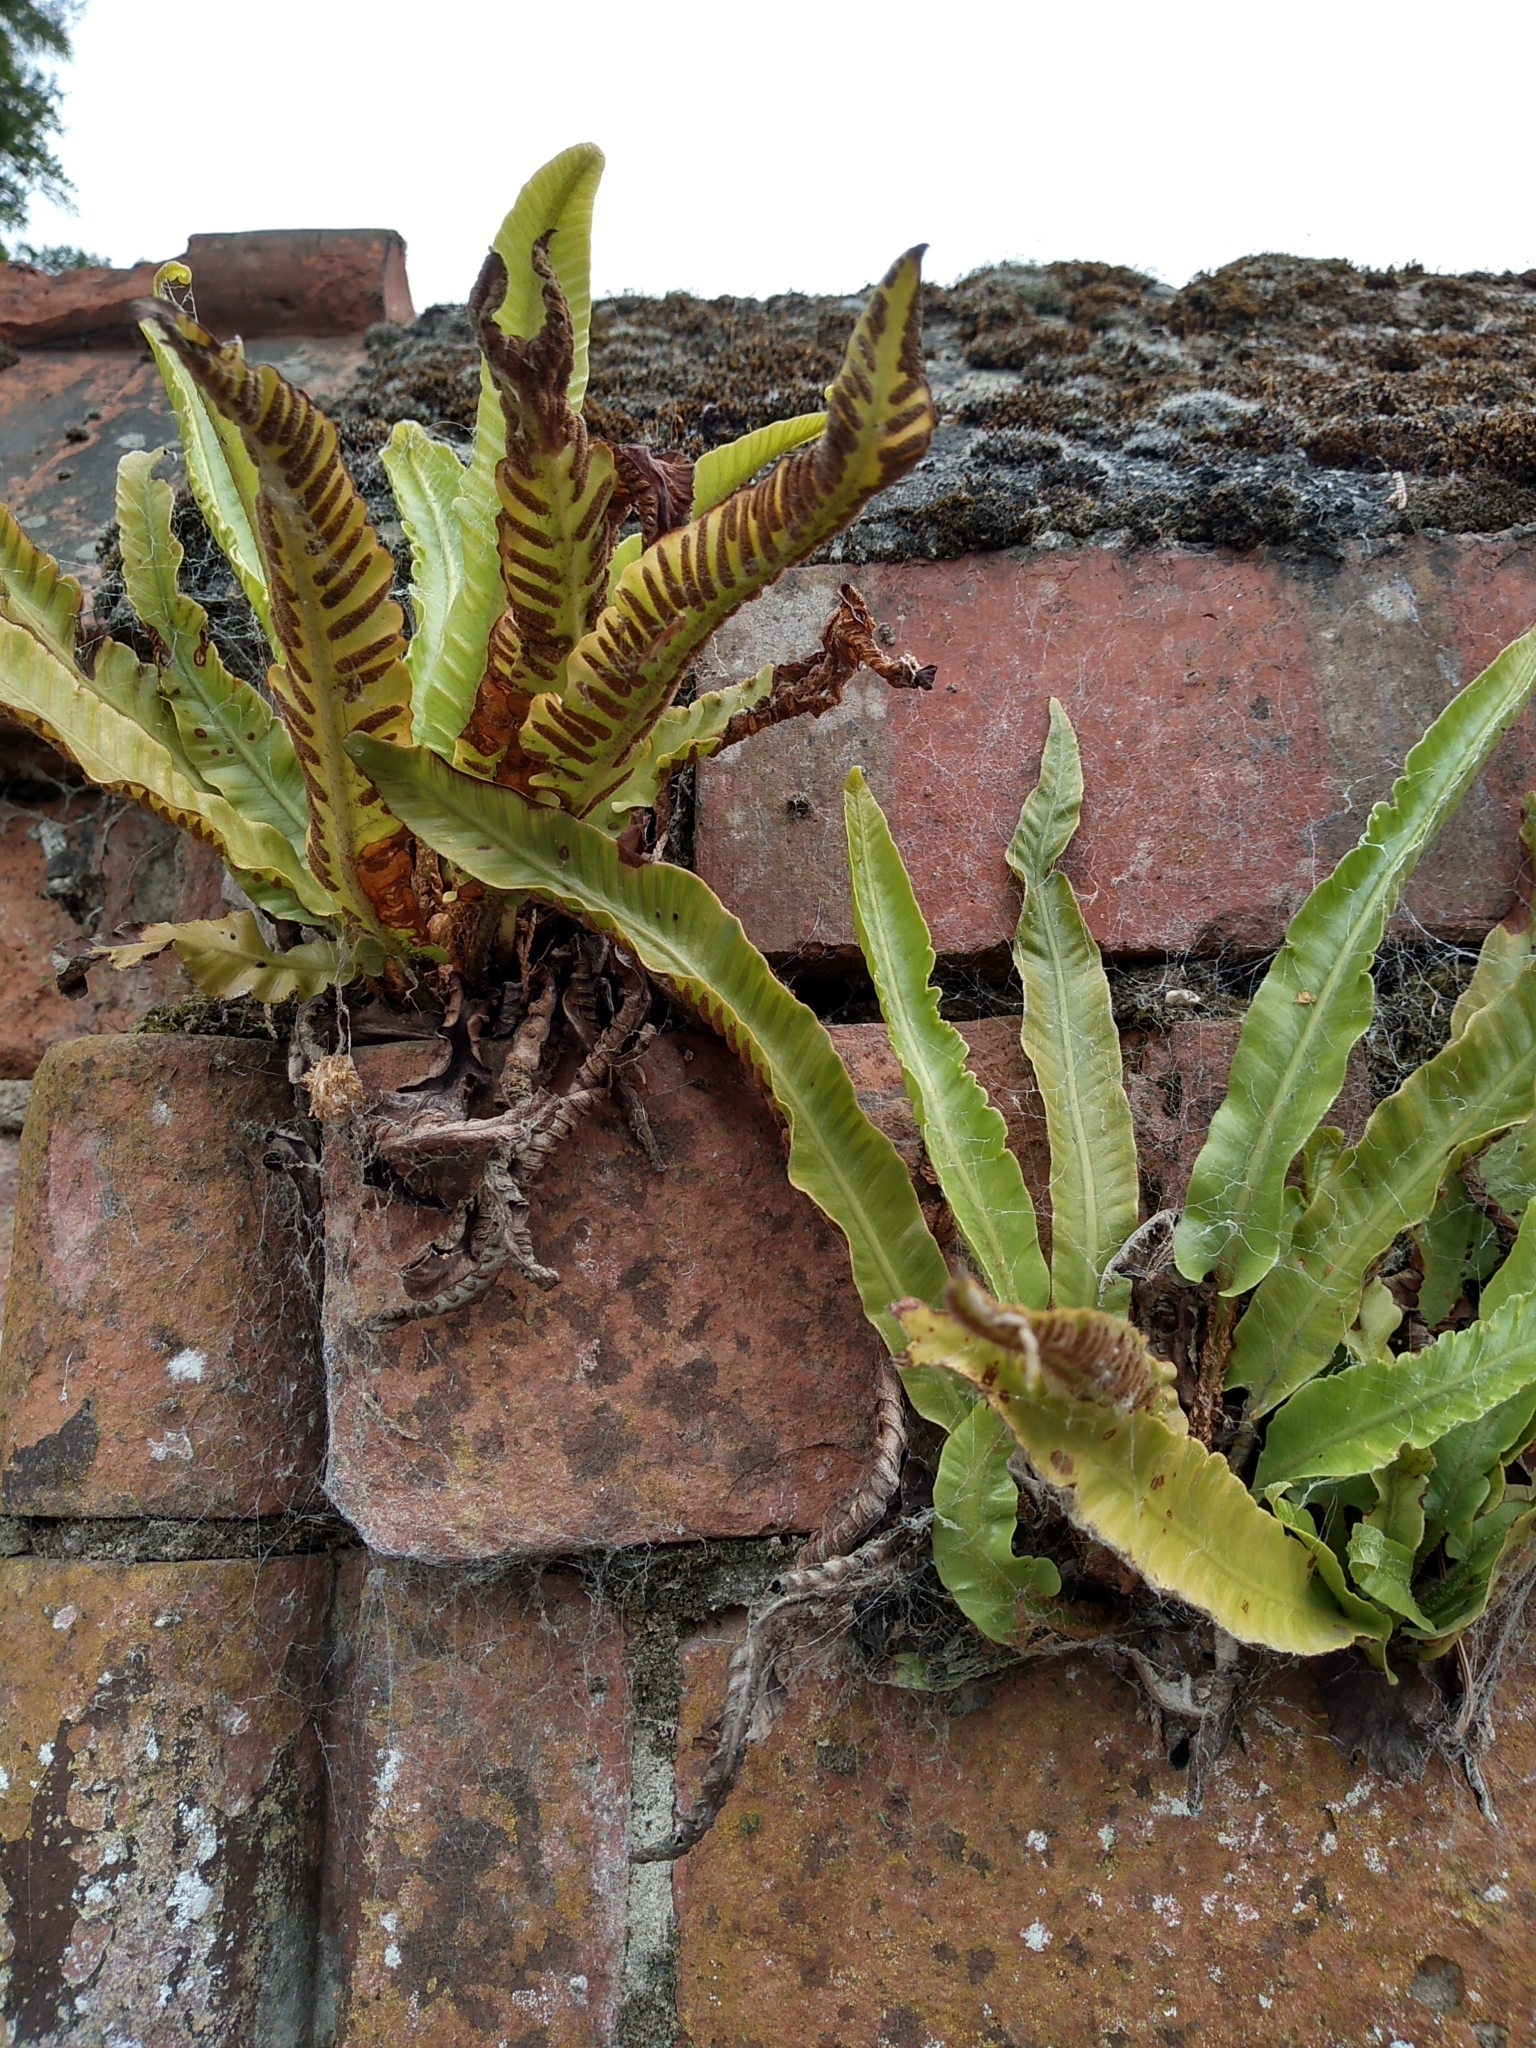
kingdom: Plantae
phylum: Tracheophyta
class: Polypodiopsida
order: Polypodiales
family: Aspleniaceae
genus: Asplenium
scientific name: Asplenium scolopendrium
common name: Hart's-tongue fern
